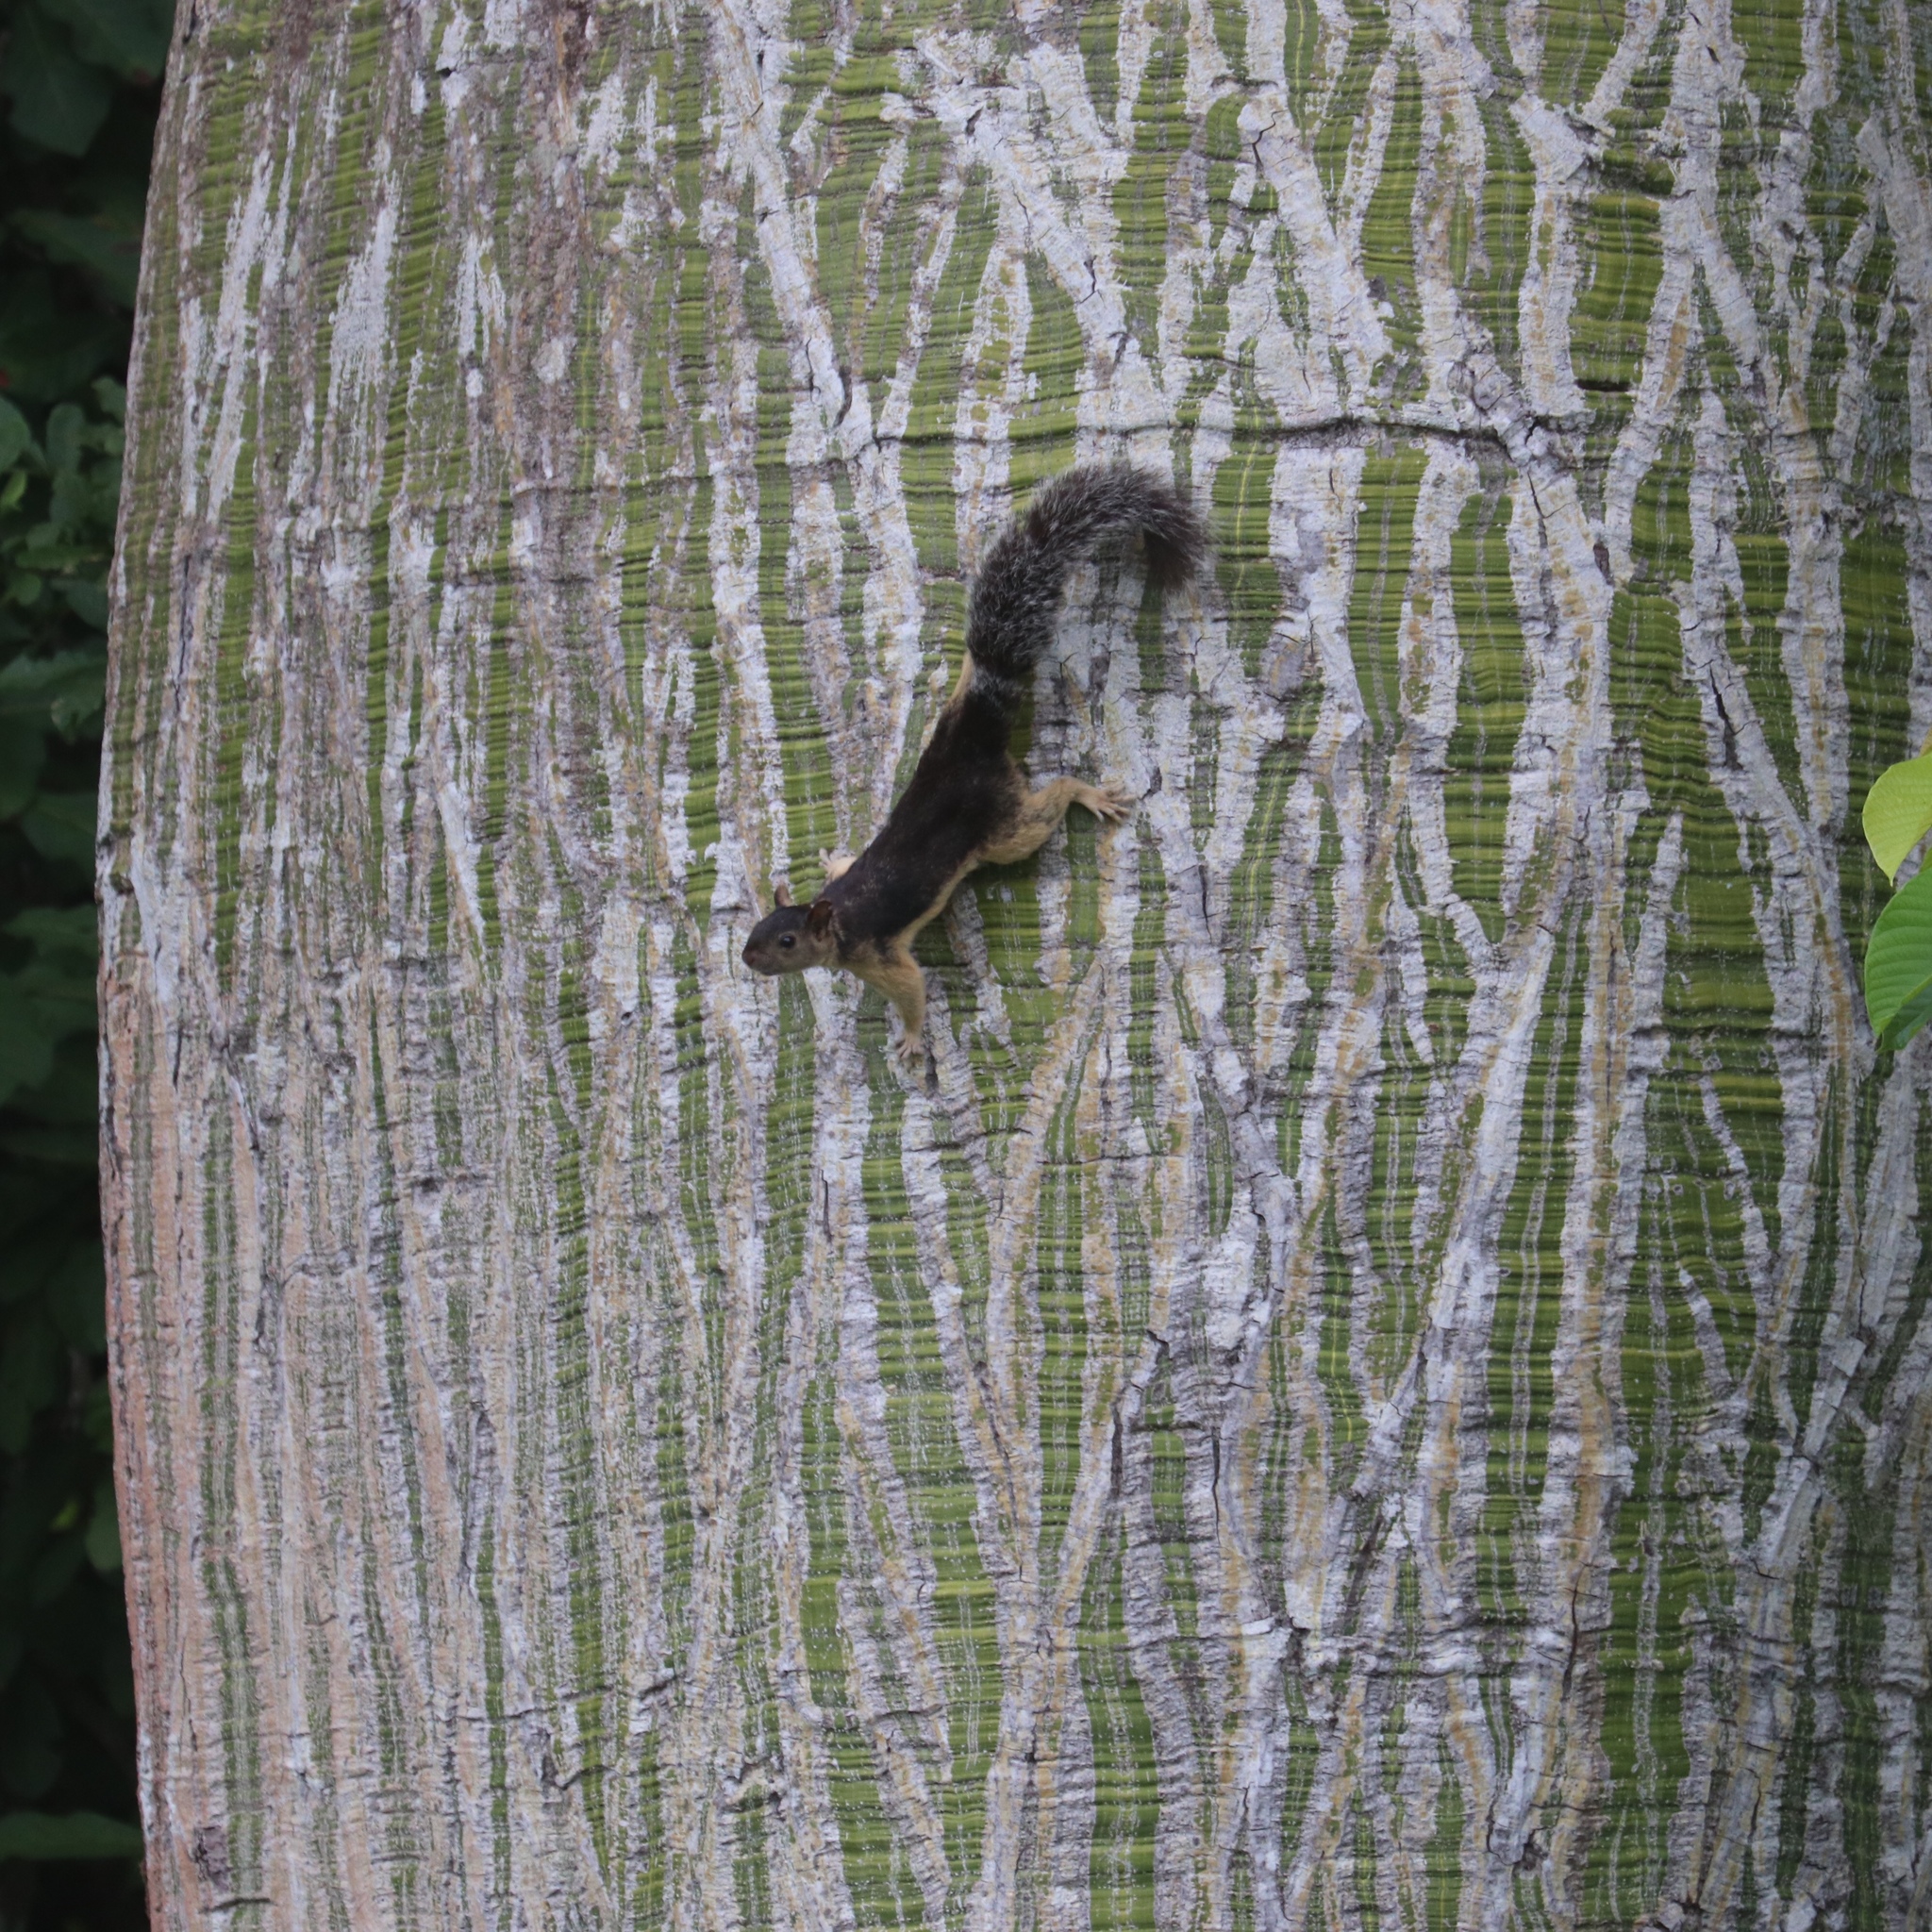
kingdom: Animalia
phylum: Chordata
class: Mammalia
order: Rodentia
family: Sciuridae
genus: Sciurus
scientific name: Sciurus variegatoides
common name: Variegated squirrel
